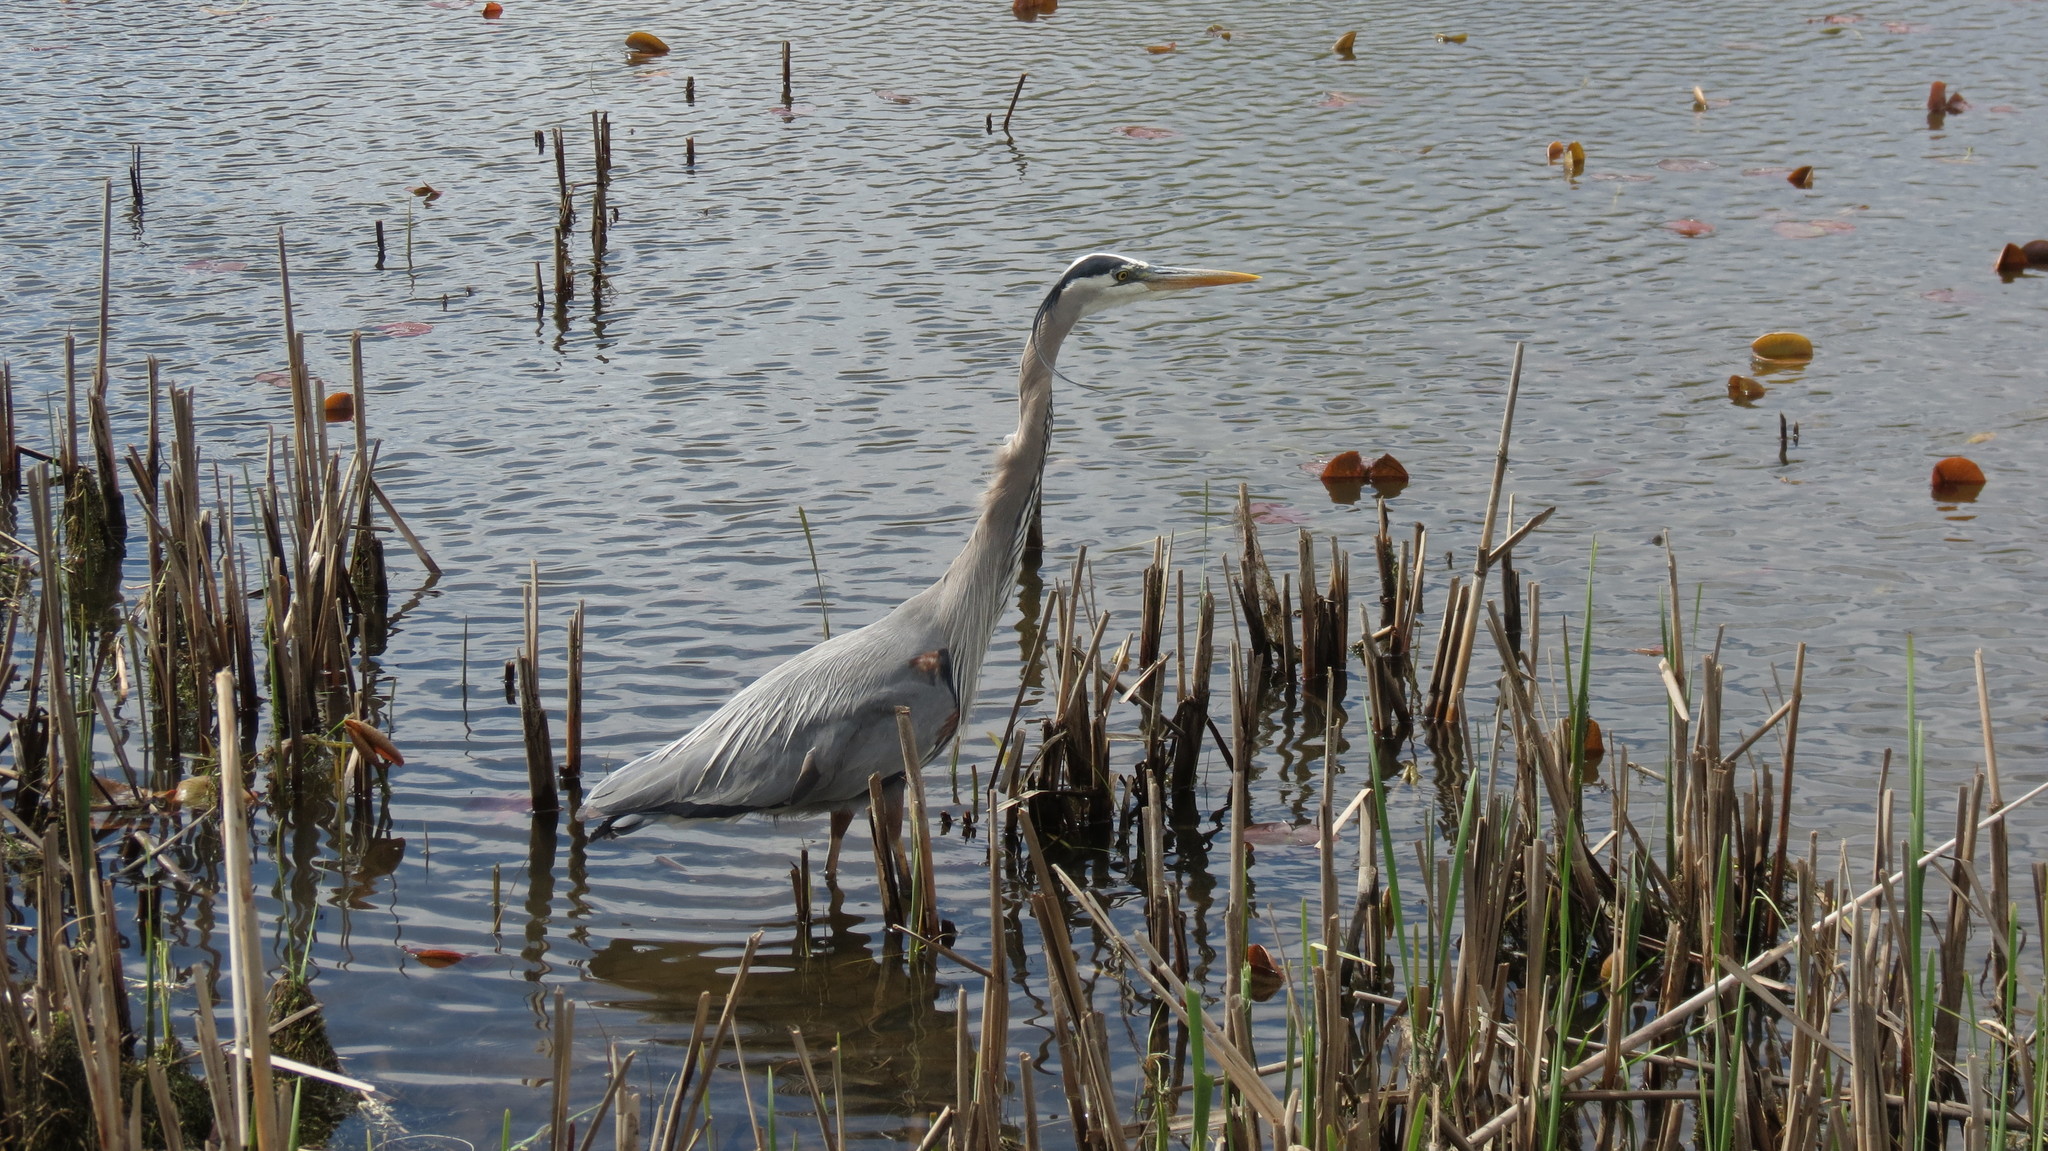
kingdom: Animalia
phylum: Chordata
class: Aves
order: Pelecaniformes
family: Ardeidae
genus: Ardea
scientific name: Ardea herodias
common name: Great blue heron
